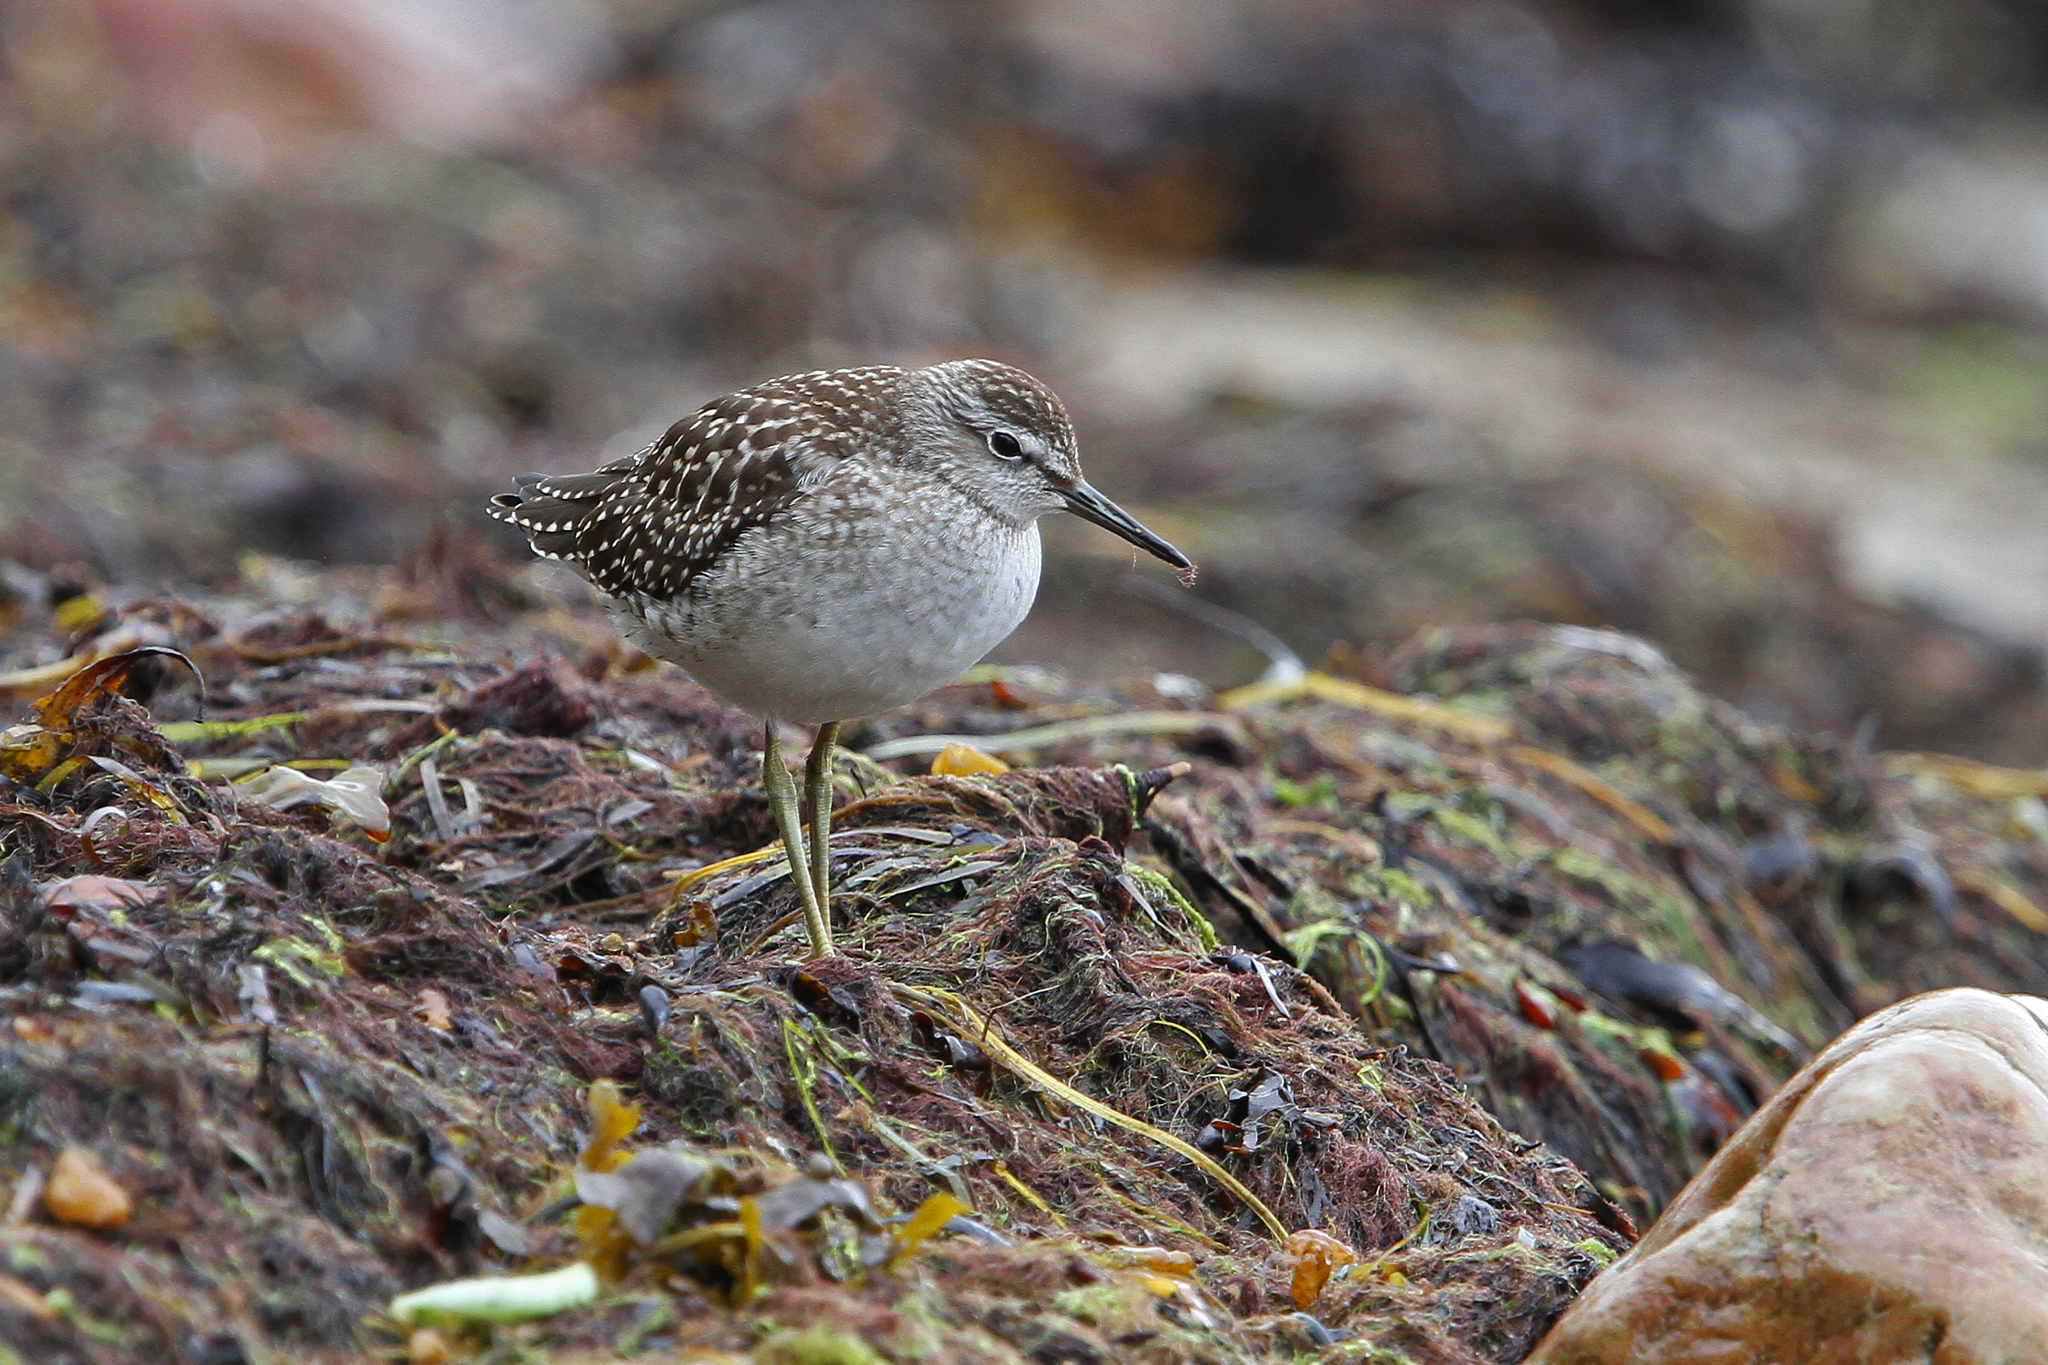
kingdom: Animalia
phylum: Chordata
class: Aves
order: Charadriiformes
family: Scolopacidae
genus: Tringa
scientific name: Tringa glareola
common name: Wood sandpiper
